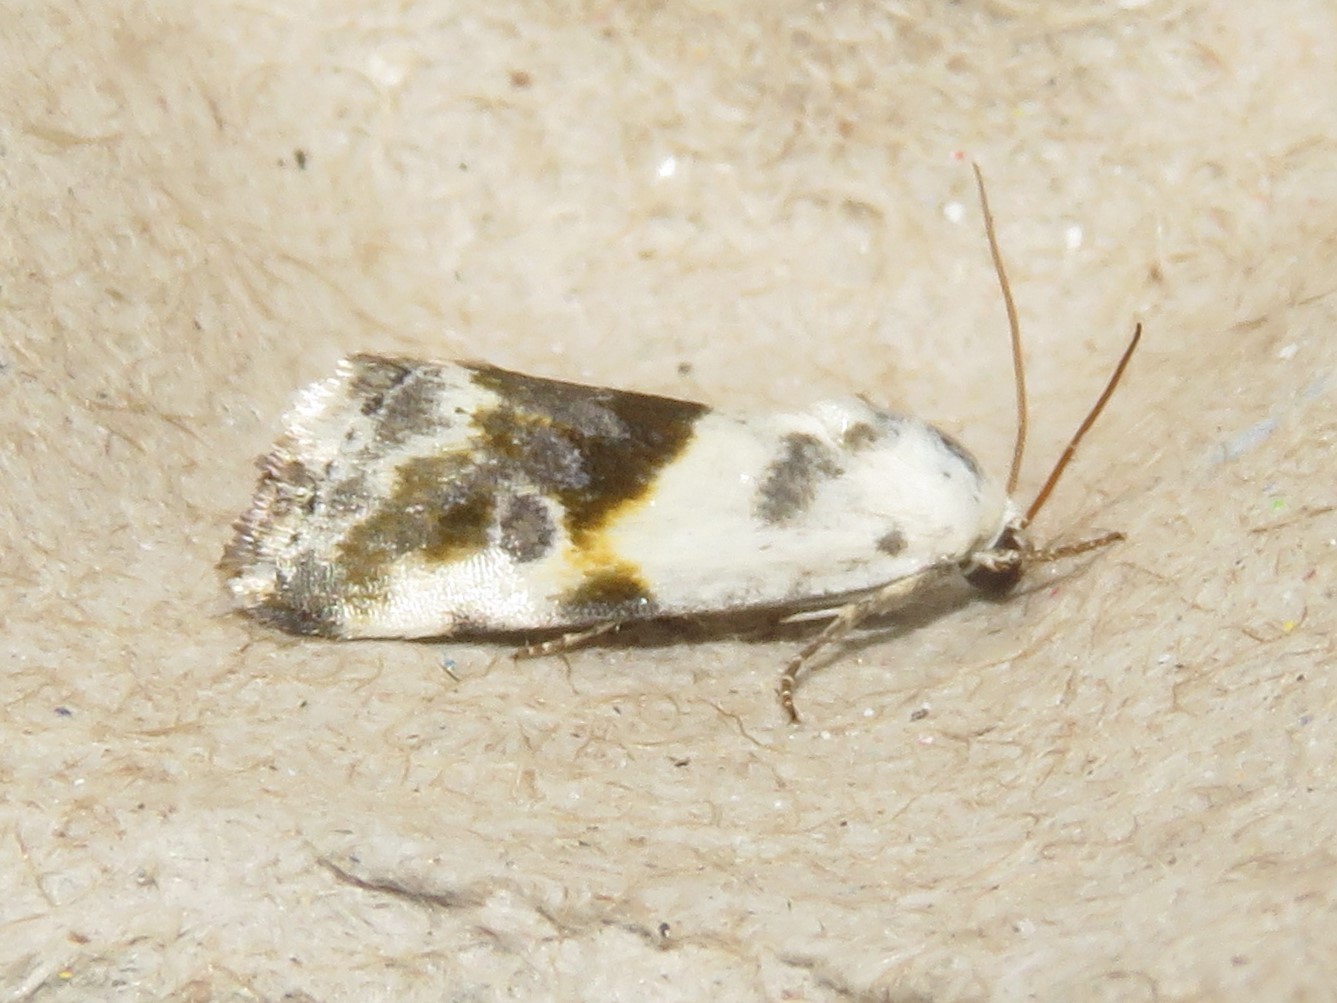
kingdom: Animalia
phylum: Arthropoda
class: Insecta
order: Lepidoptera
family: Noctuidae
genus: Acontia
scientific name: Acontia candefacta
